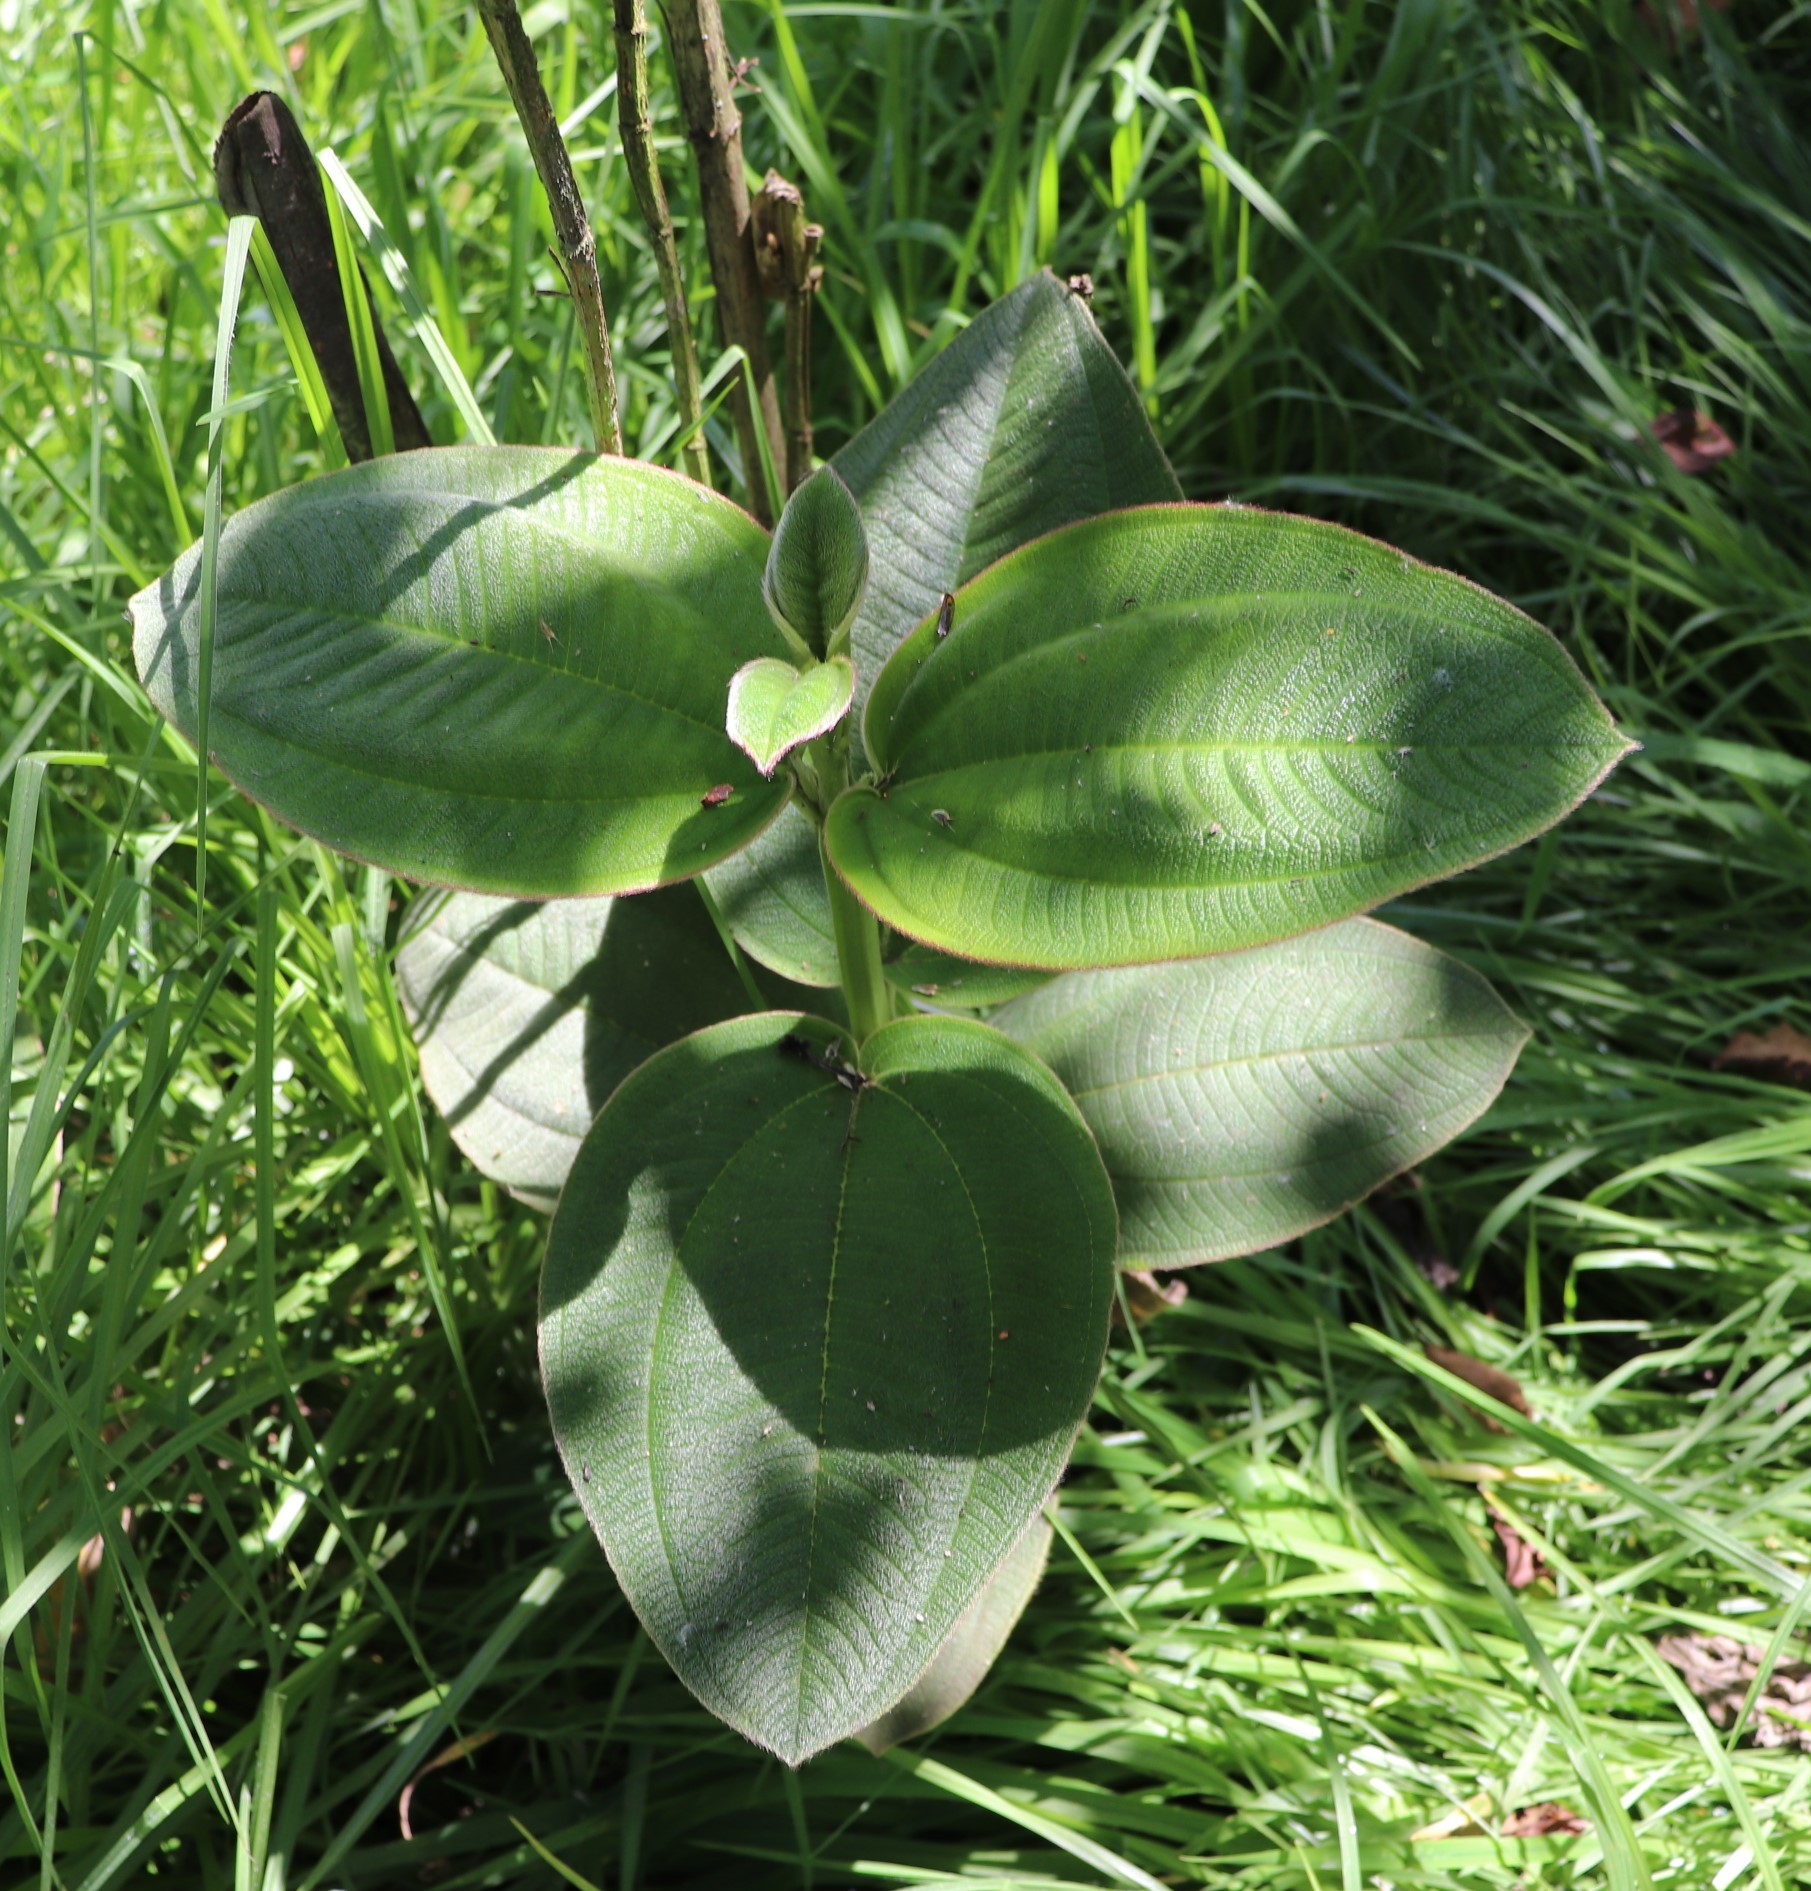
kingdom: Plantae
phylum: Tracheophyta
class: Magnoliopsida
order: Myrtales
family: Melastomataceae
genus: Pleroma
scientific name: Pleroma heteromallum
